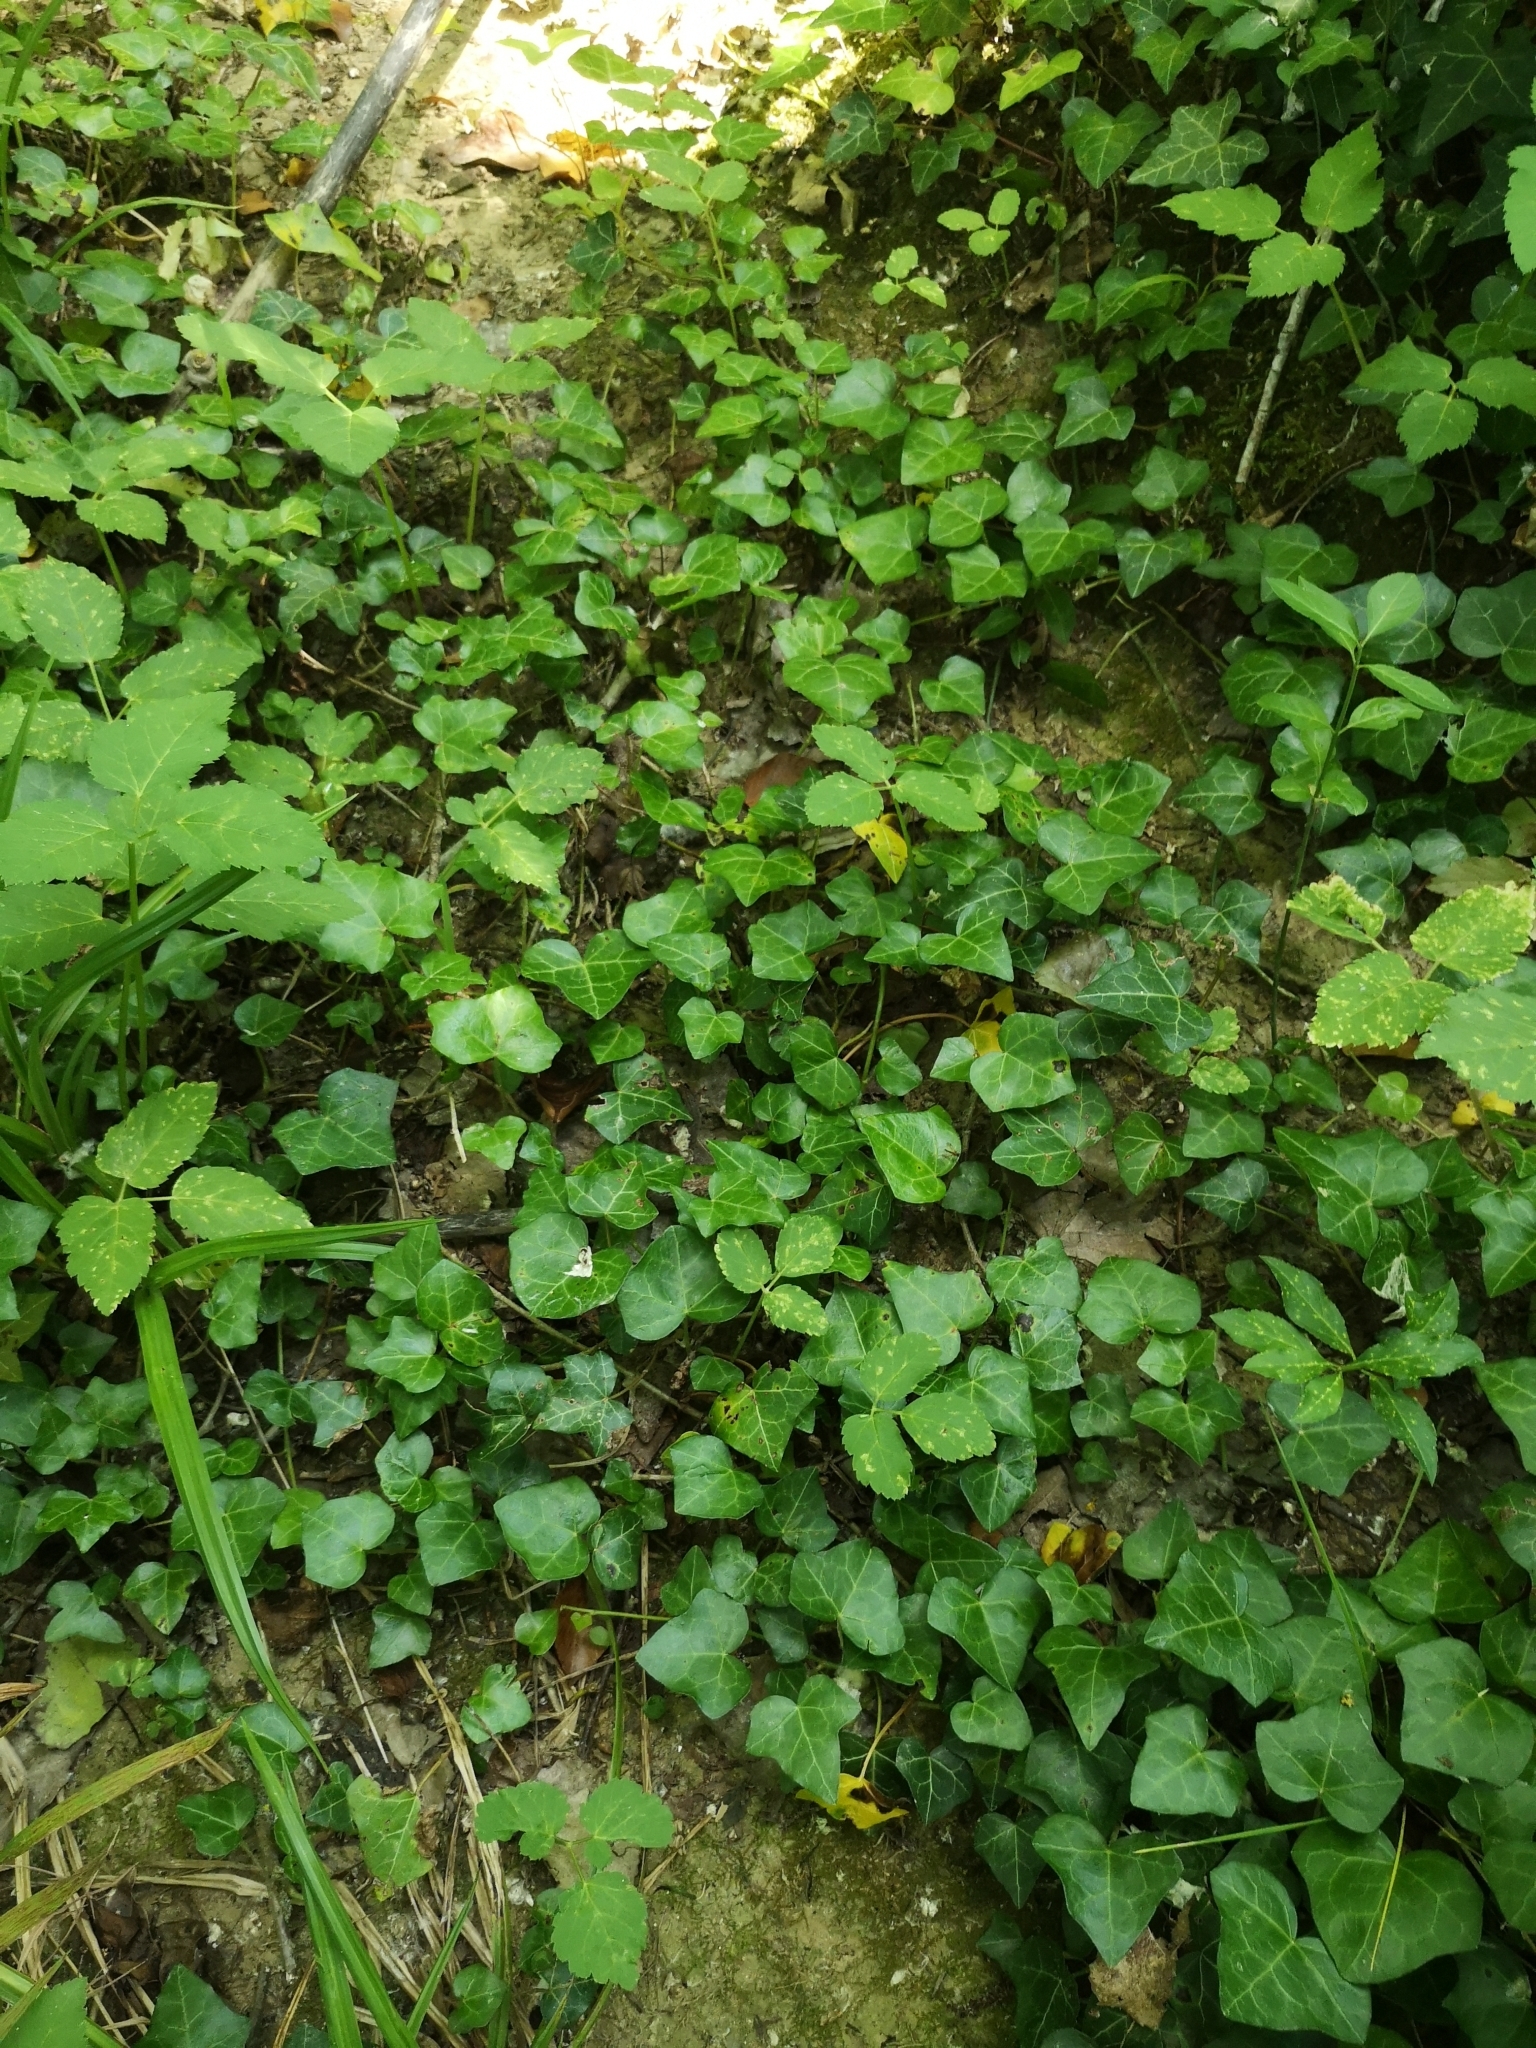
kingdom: Plantae
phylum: Tracheophyta
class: Magnoliopsida
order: Apiales
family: Araliaceae
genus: Hedera
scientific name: Hedera helix
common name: Ivy
